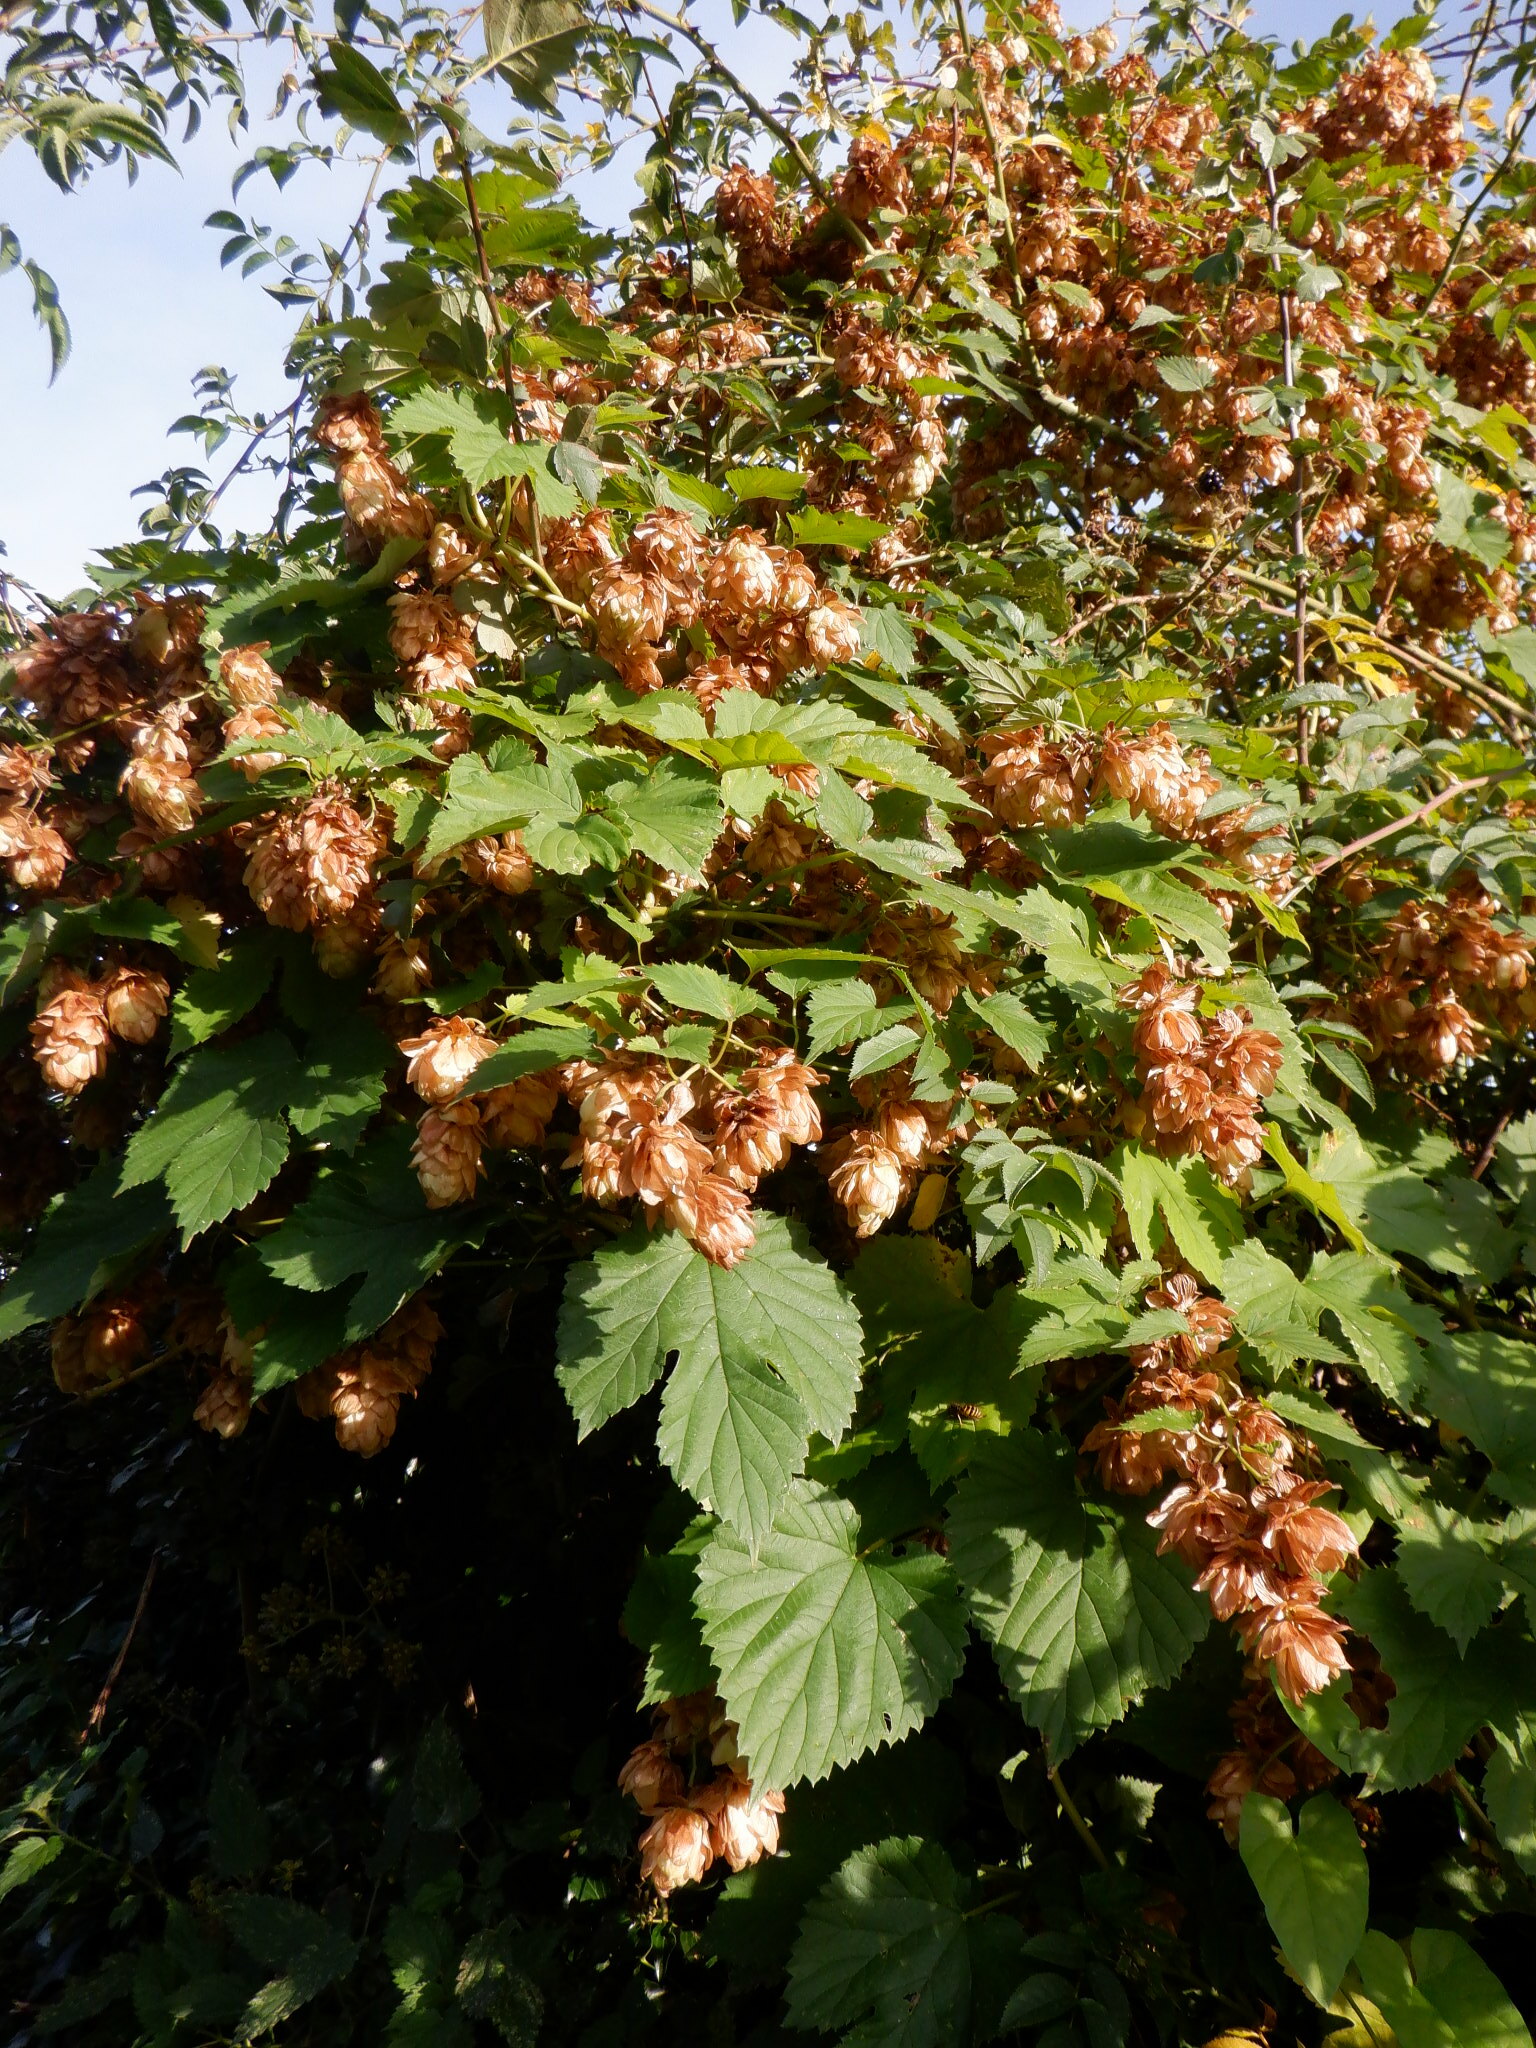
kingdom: Plantae
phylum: Tracheophyta
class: Magnoliopsida
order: Rosales
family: Cannabaceae
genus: Humulus
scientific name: Humulus lupulus
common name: Hop
